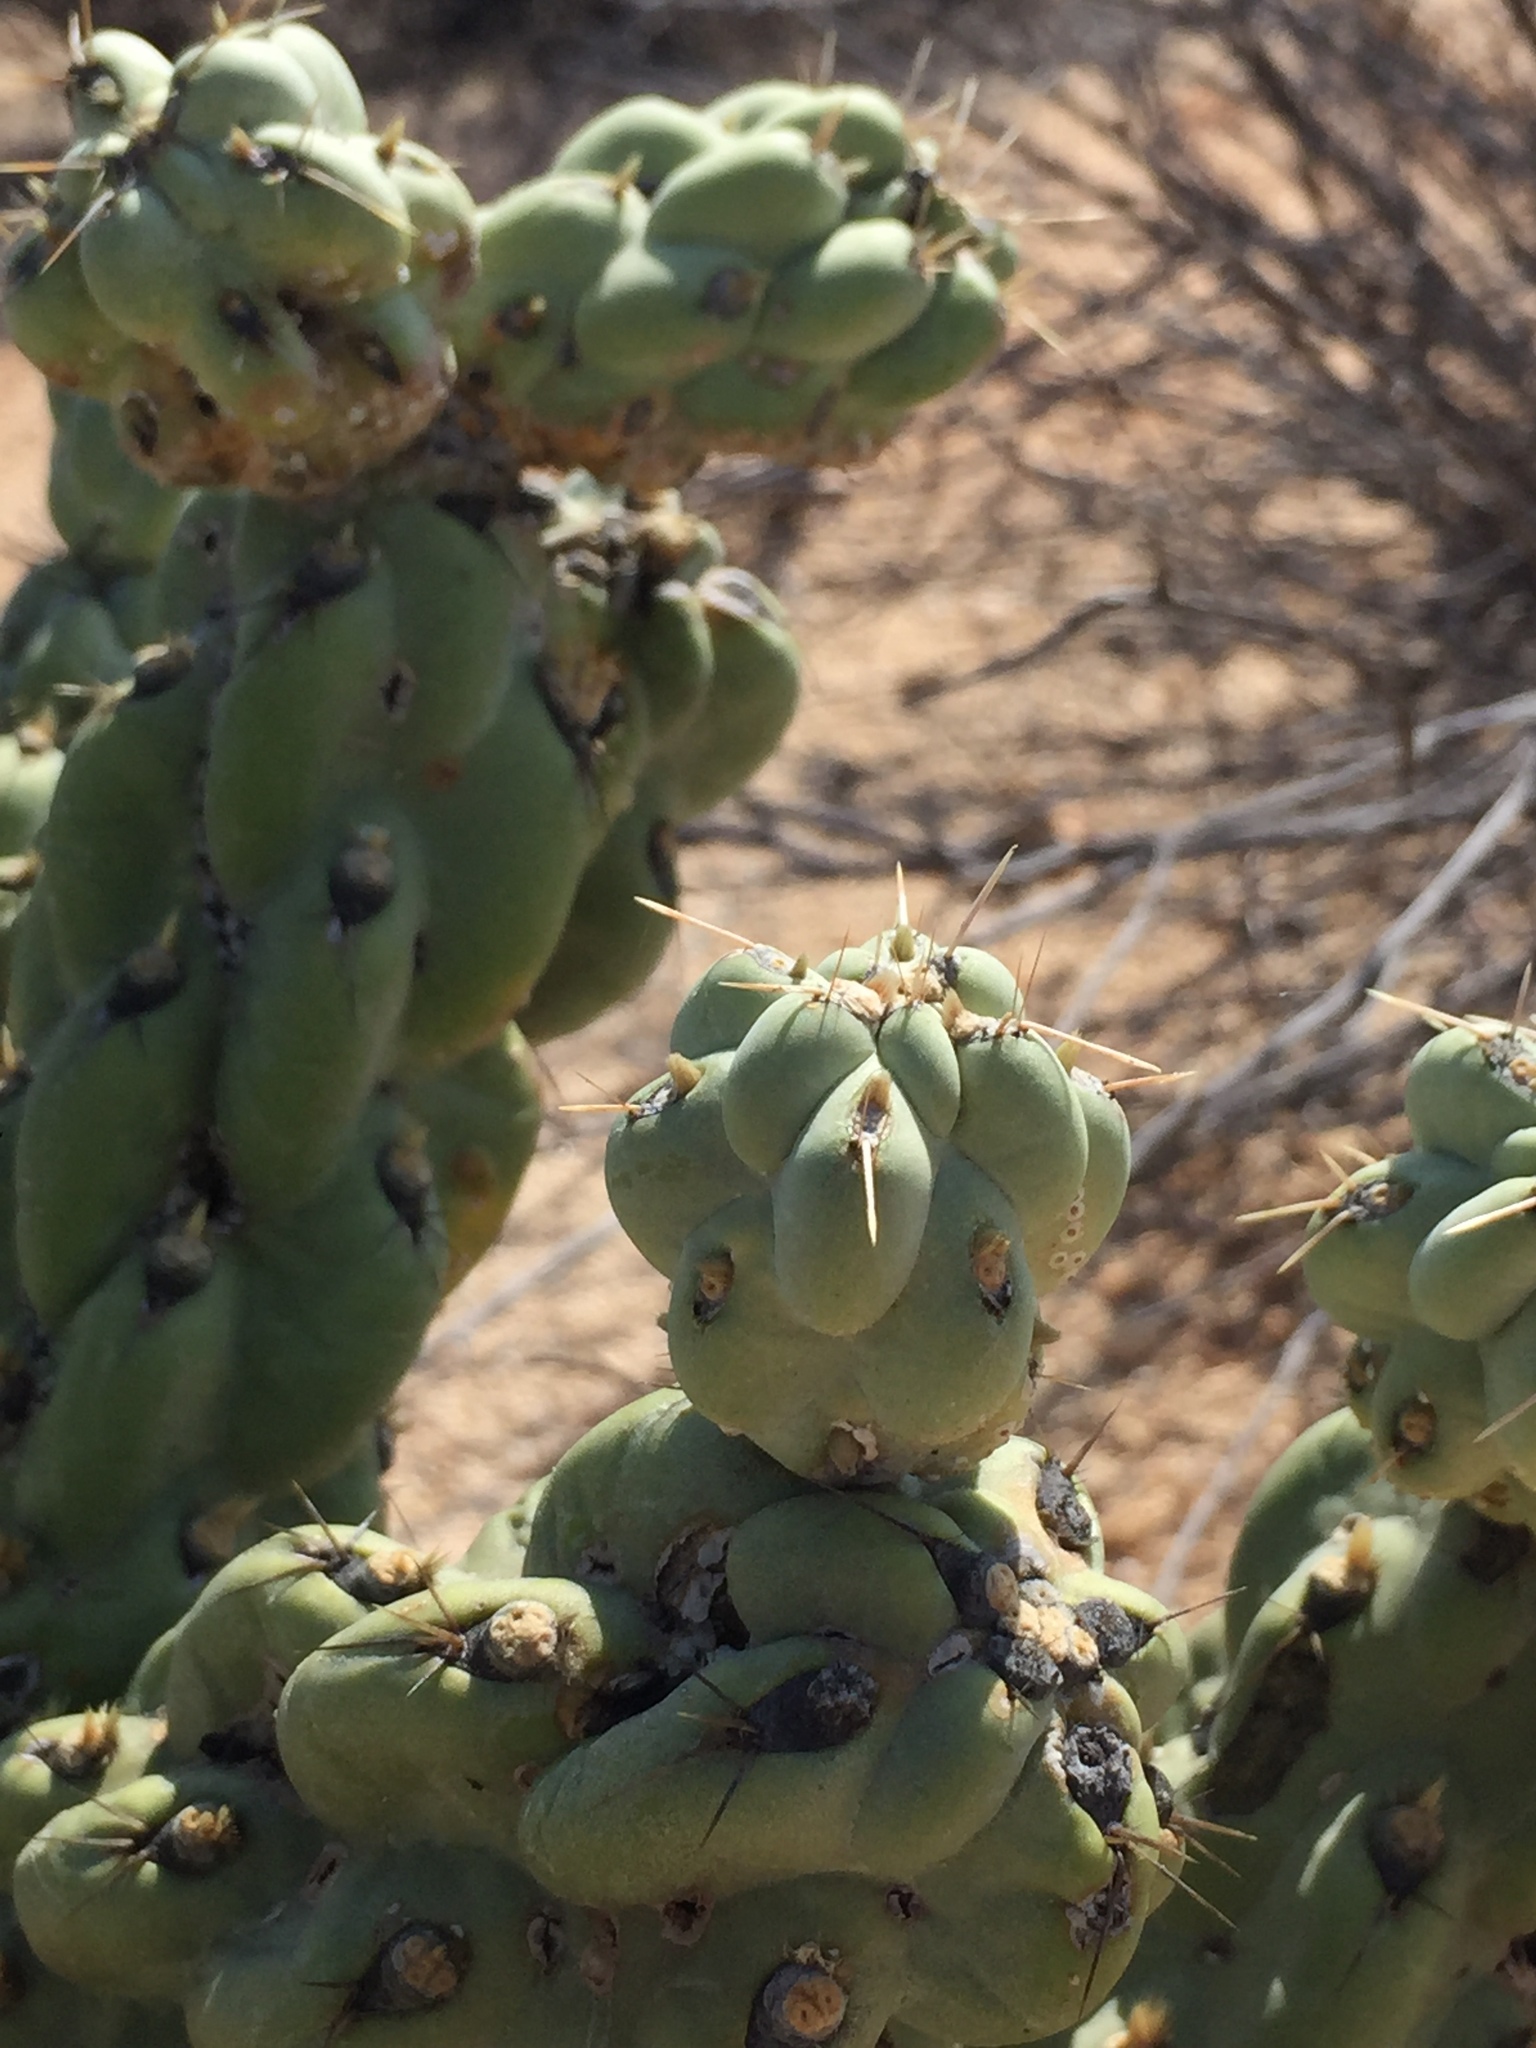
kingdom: Plantae
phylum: Tracheophyta
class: Magnoliopsida
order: Caryophyllales
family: Cactaceae
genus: Cylindropuntia
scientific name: Cylindropuntia cholla
